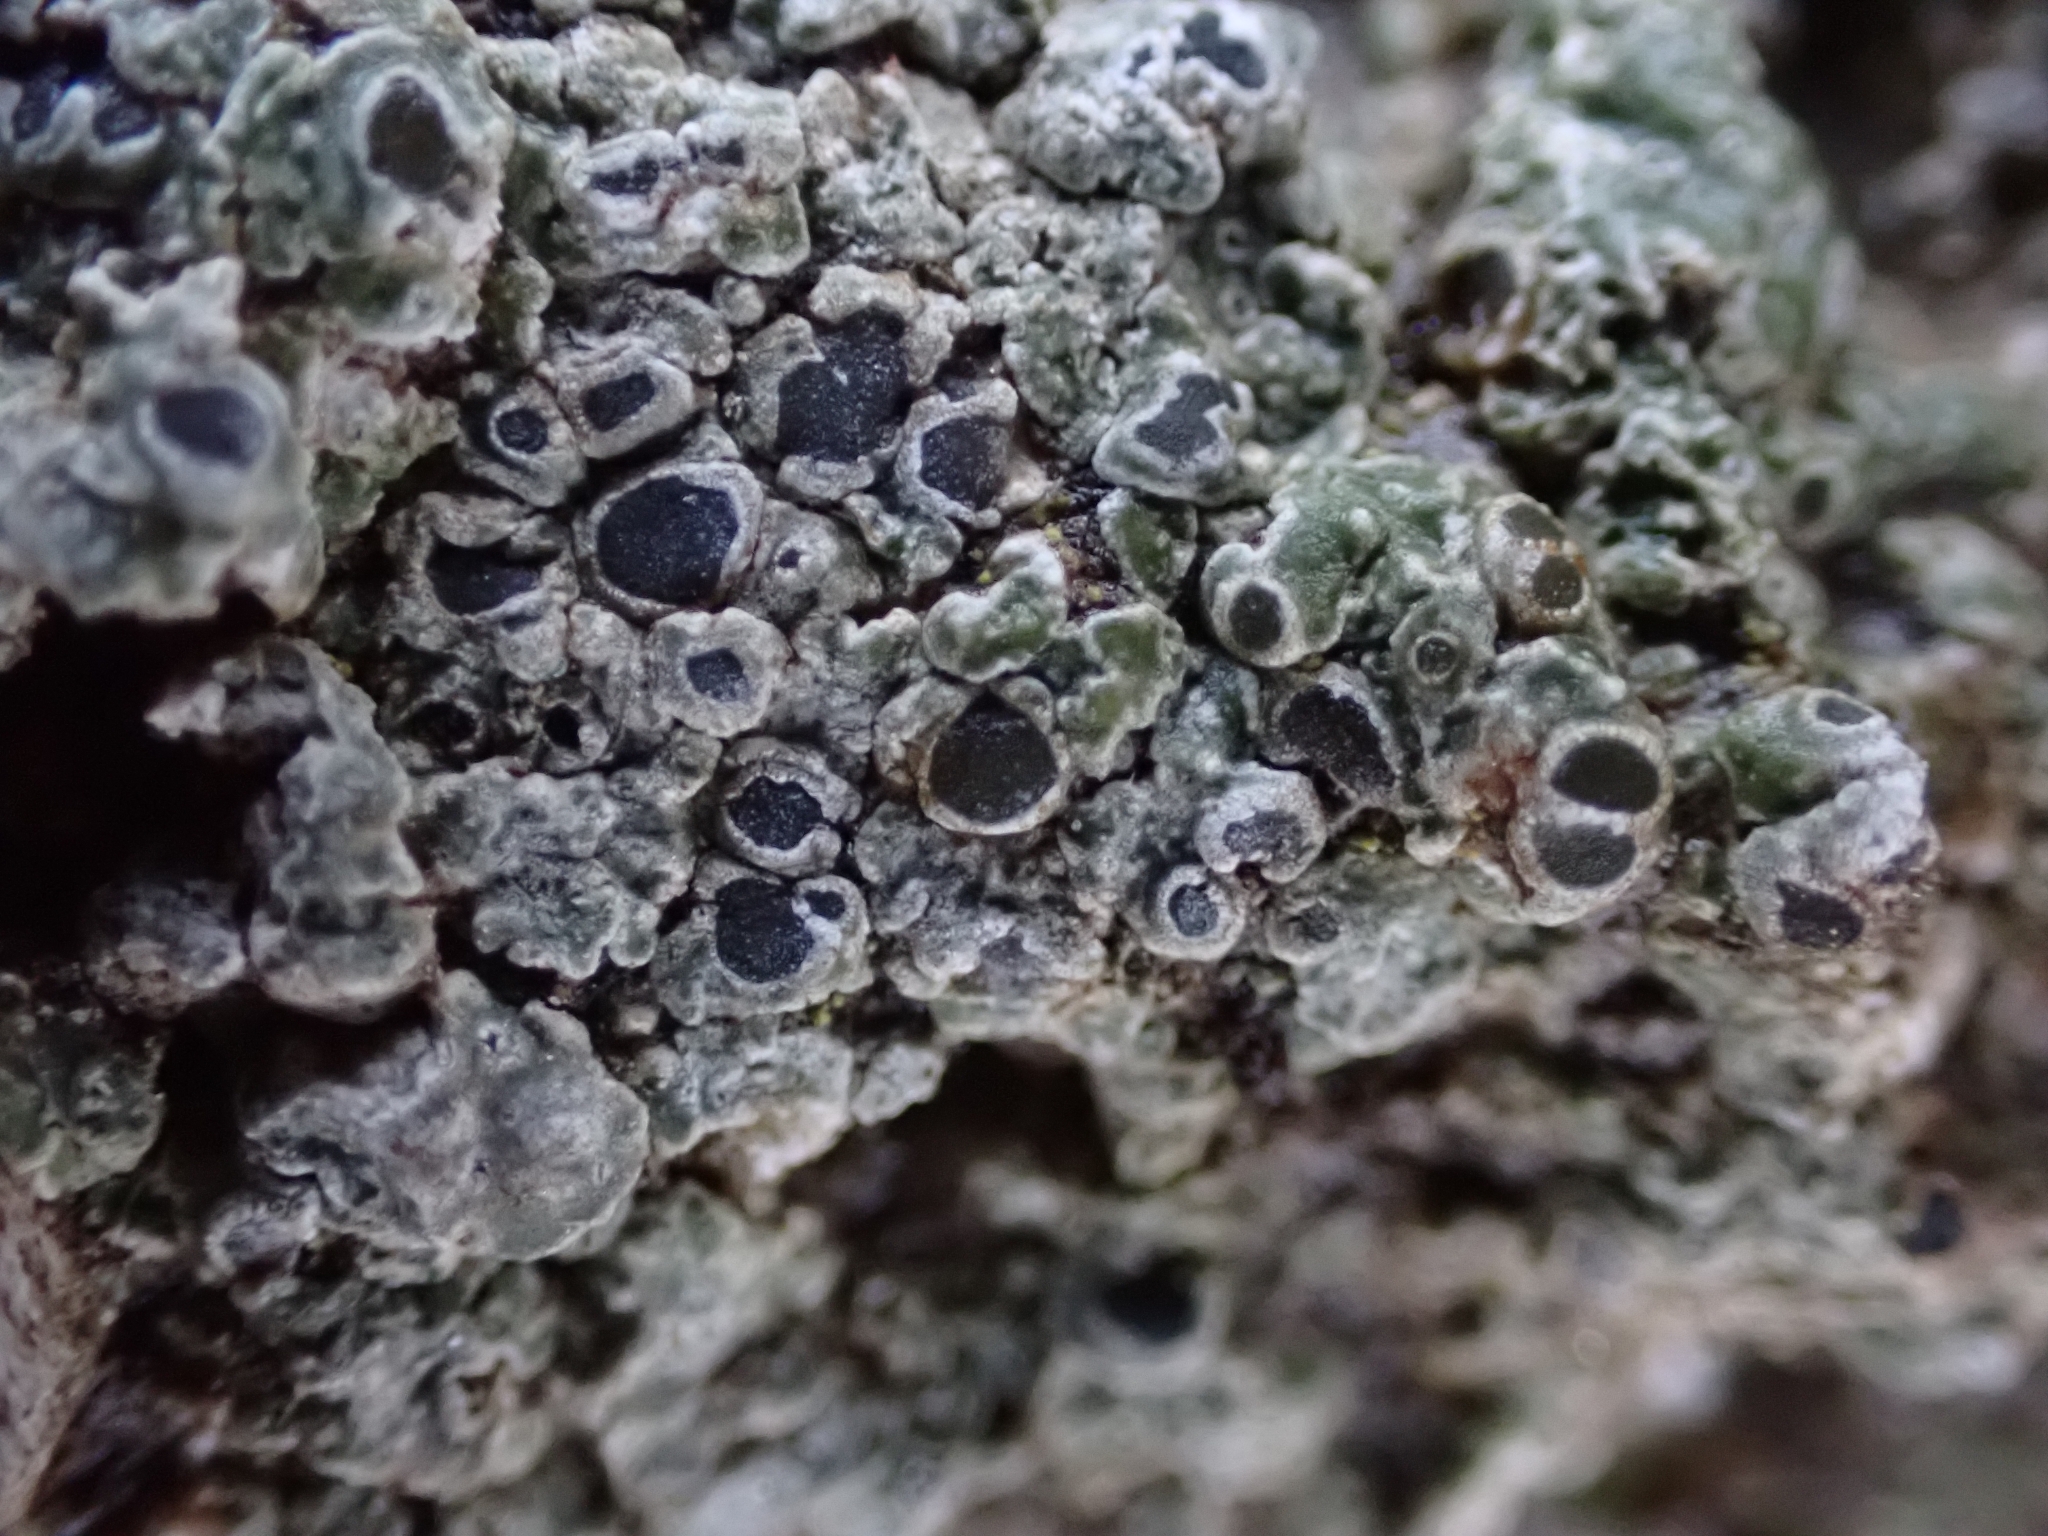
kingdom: Fungi
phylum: Ascomycota
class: Lecanoromycetes
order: Pertusariales
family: Megasporaceae
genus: Circinaria
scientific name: Circinaria contorta
